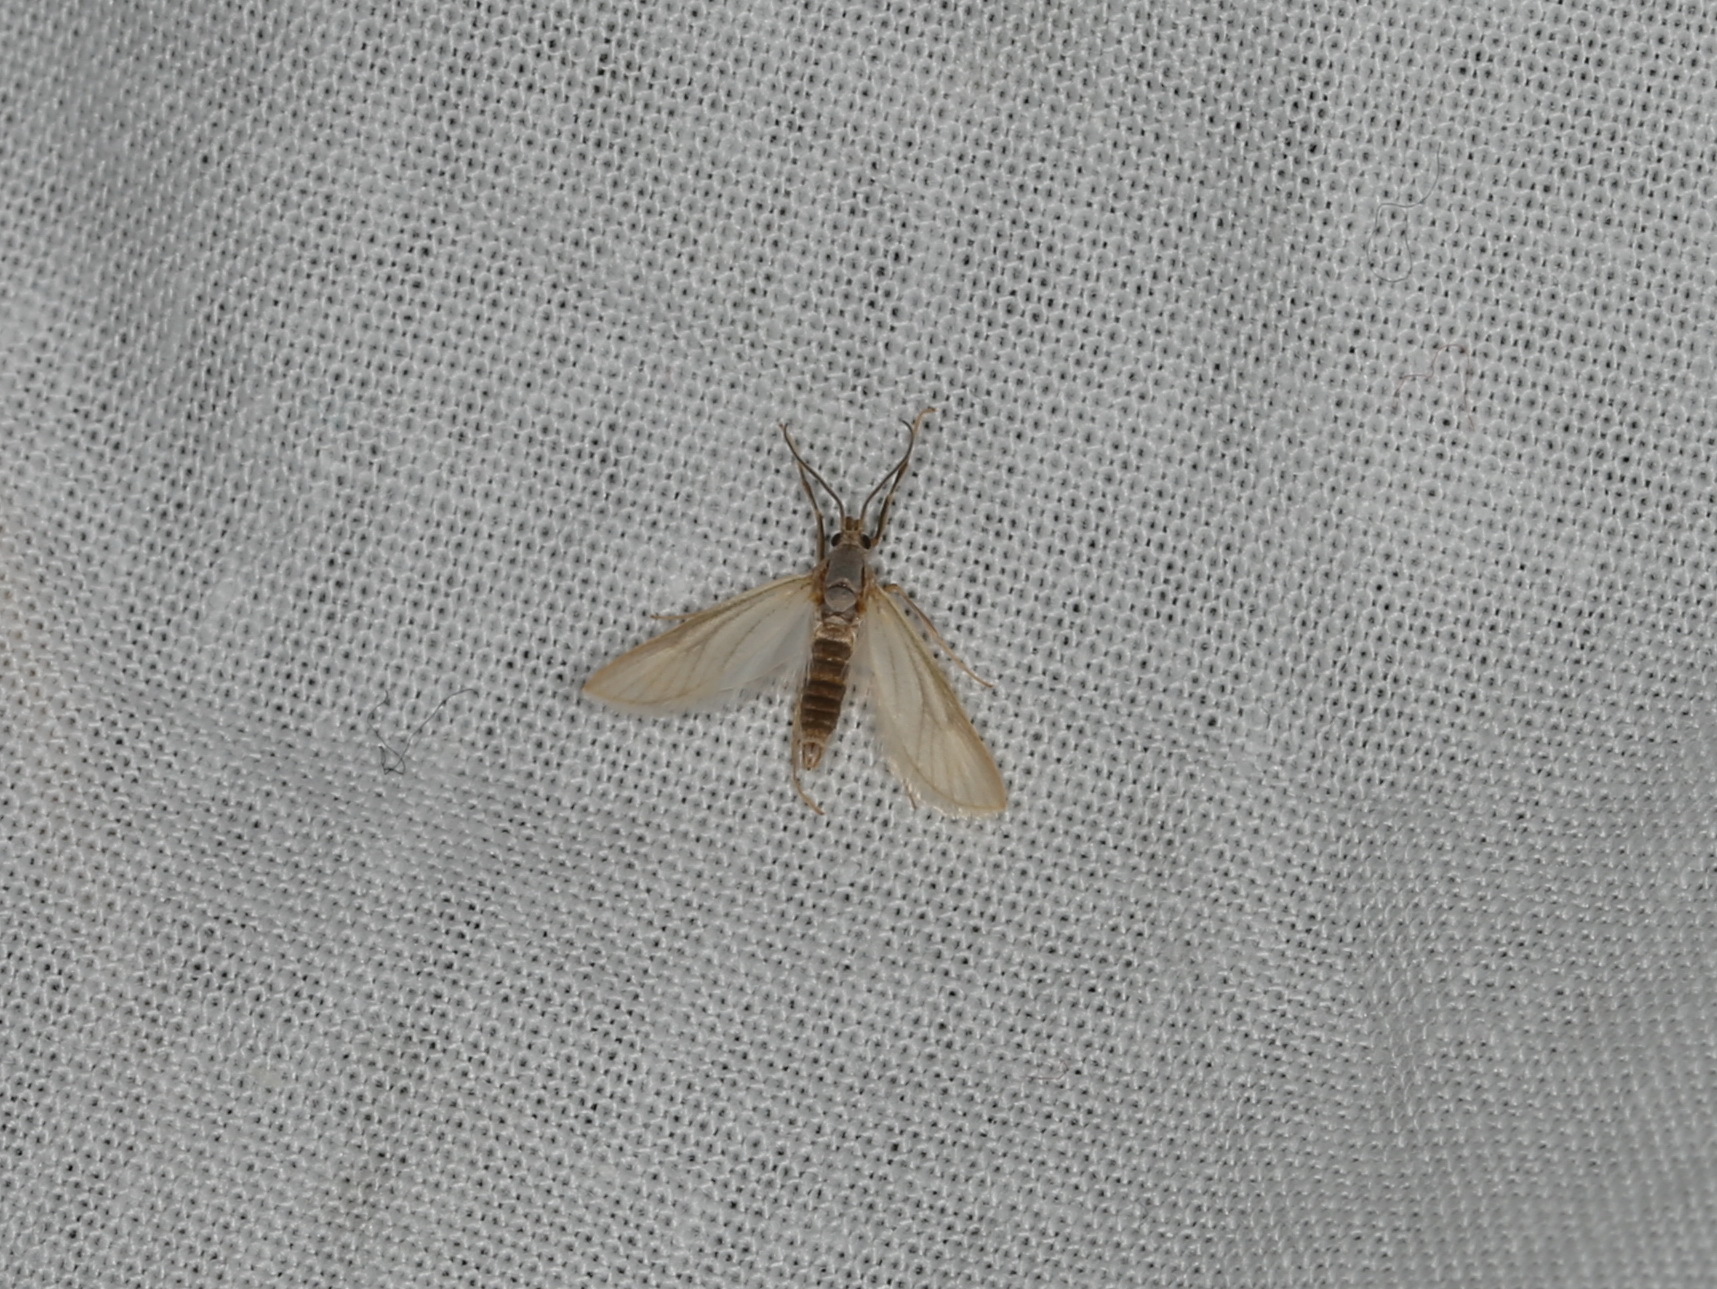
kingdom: Animalia
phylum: Arthropoda
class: Insecta
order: Lepidoptera
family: Crambidae
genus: Acentria
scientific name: Acentria ephemerella
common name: European water moth
